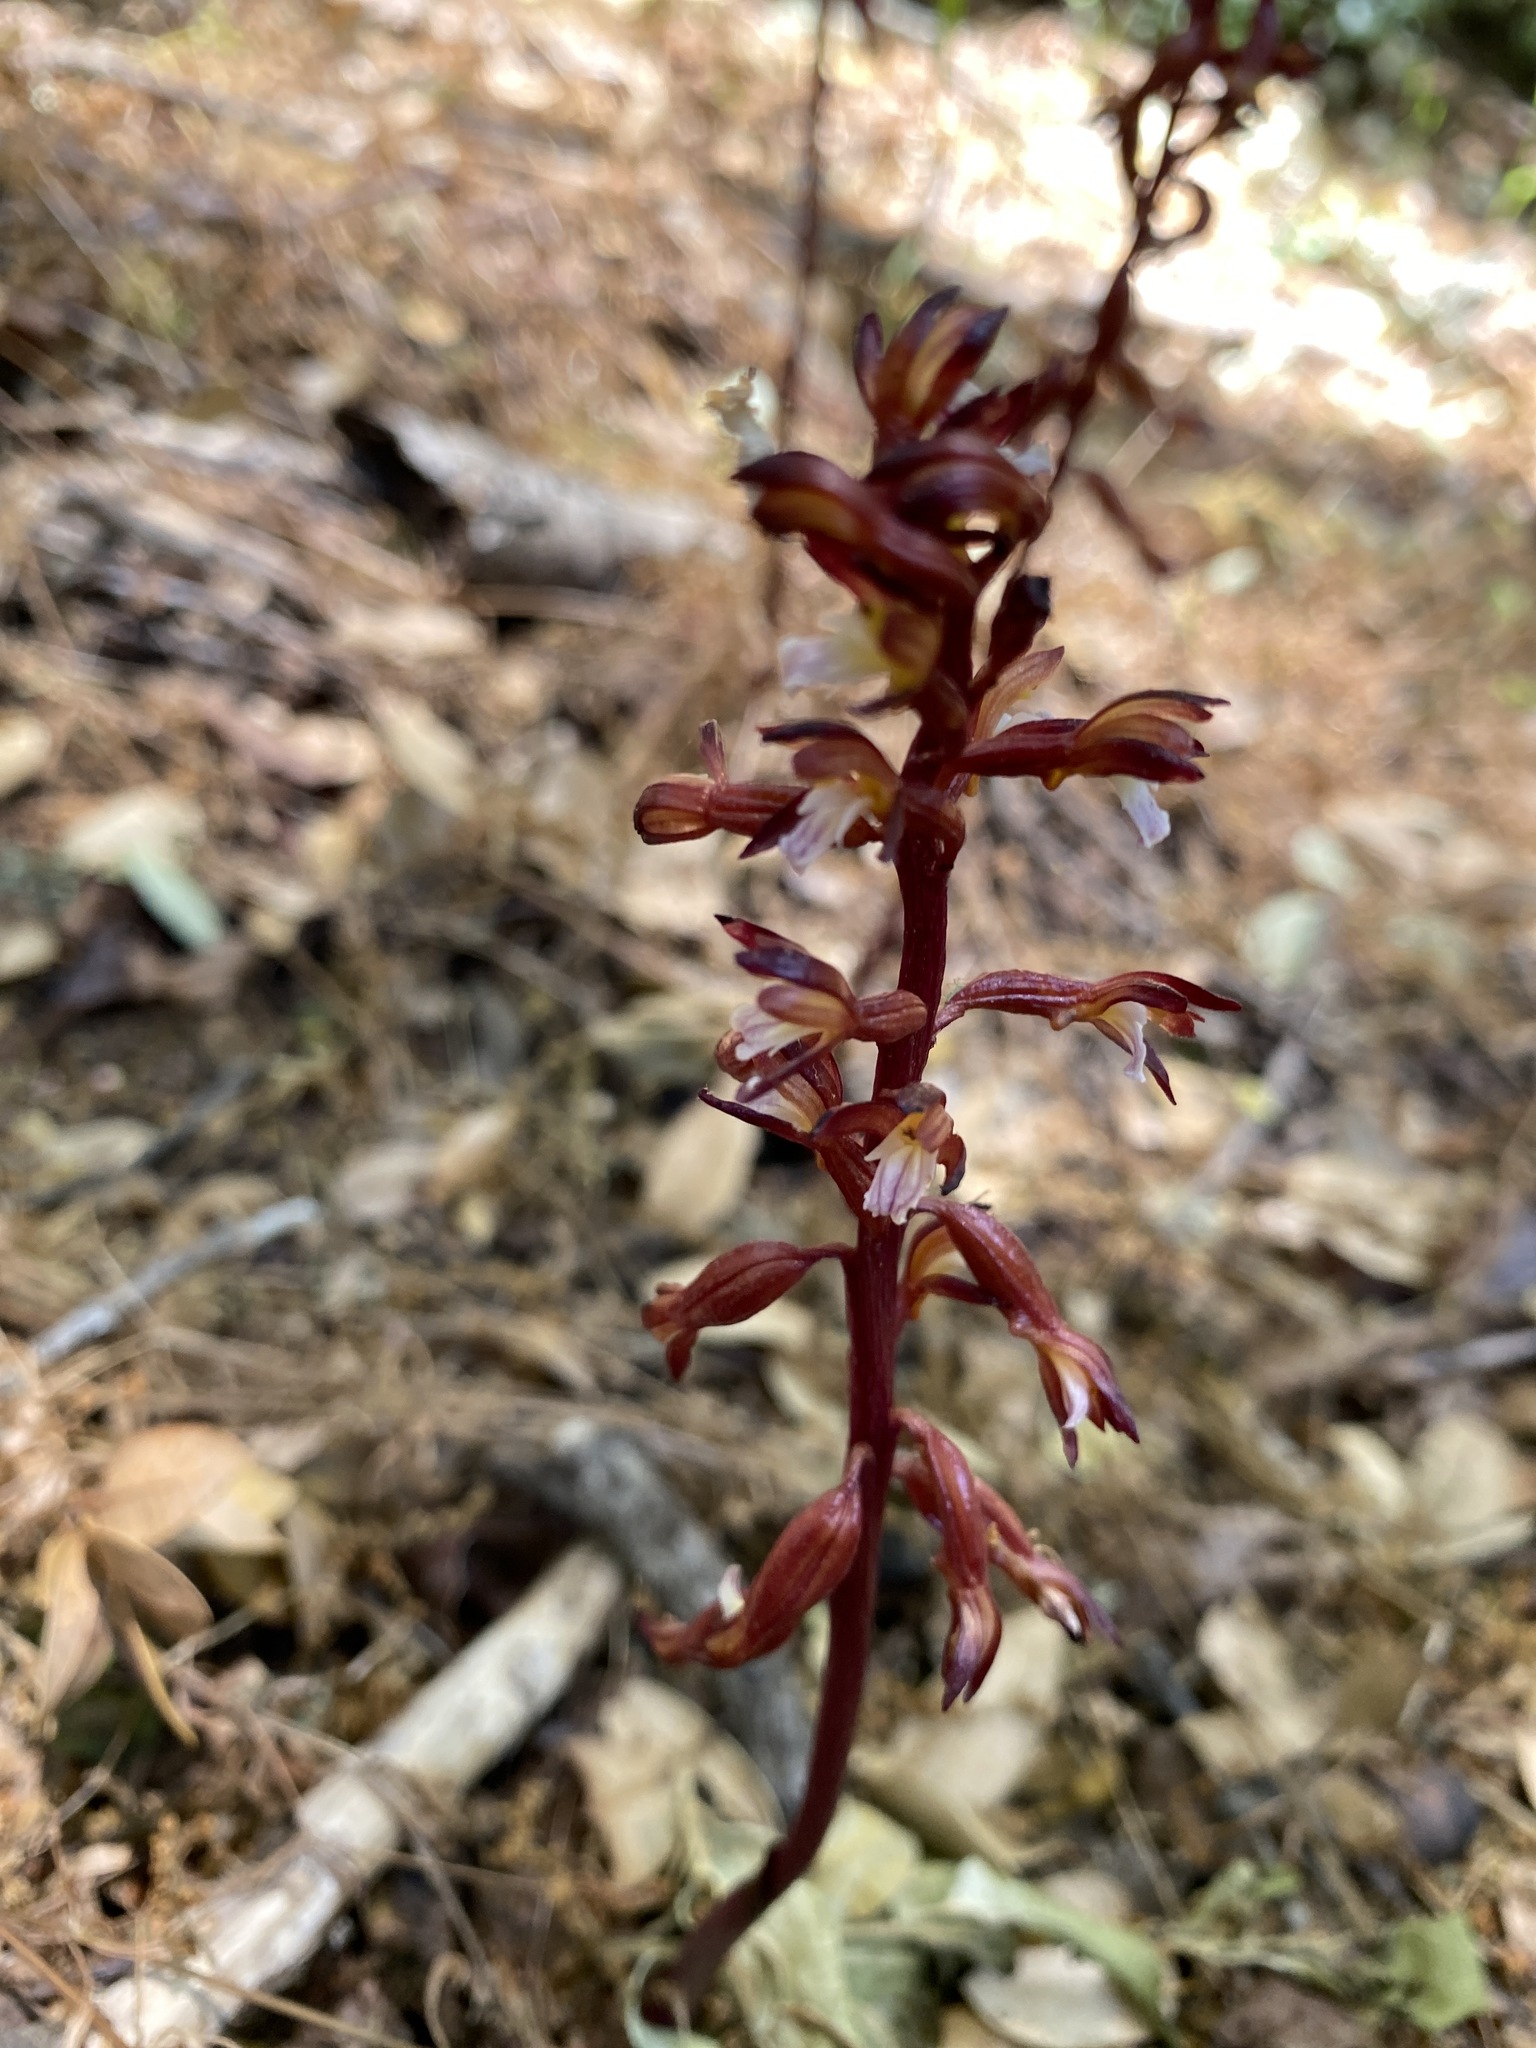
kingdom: Plantae
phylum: Tracheophyta
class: Liliopsida
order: Asparagales
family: Orchidaceae
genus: Corallorhiza
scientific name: Corallorhiza maculata
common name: Spotted coralroot
